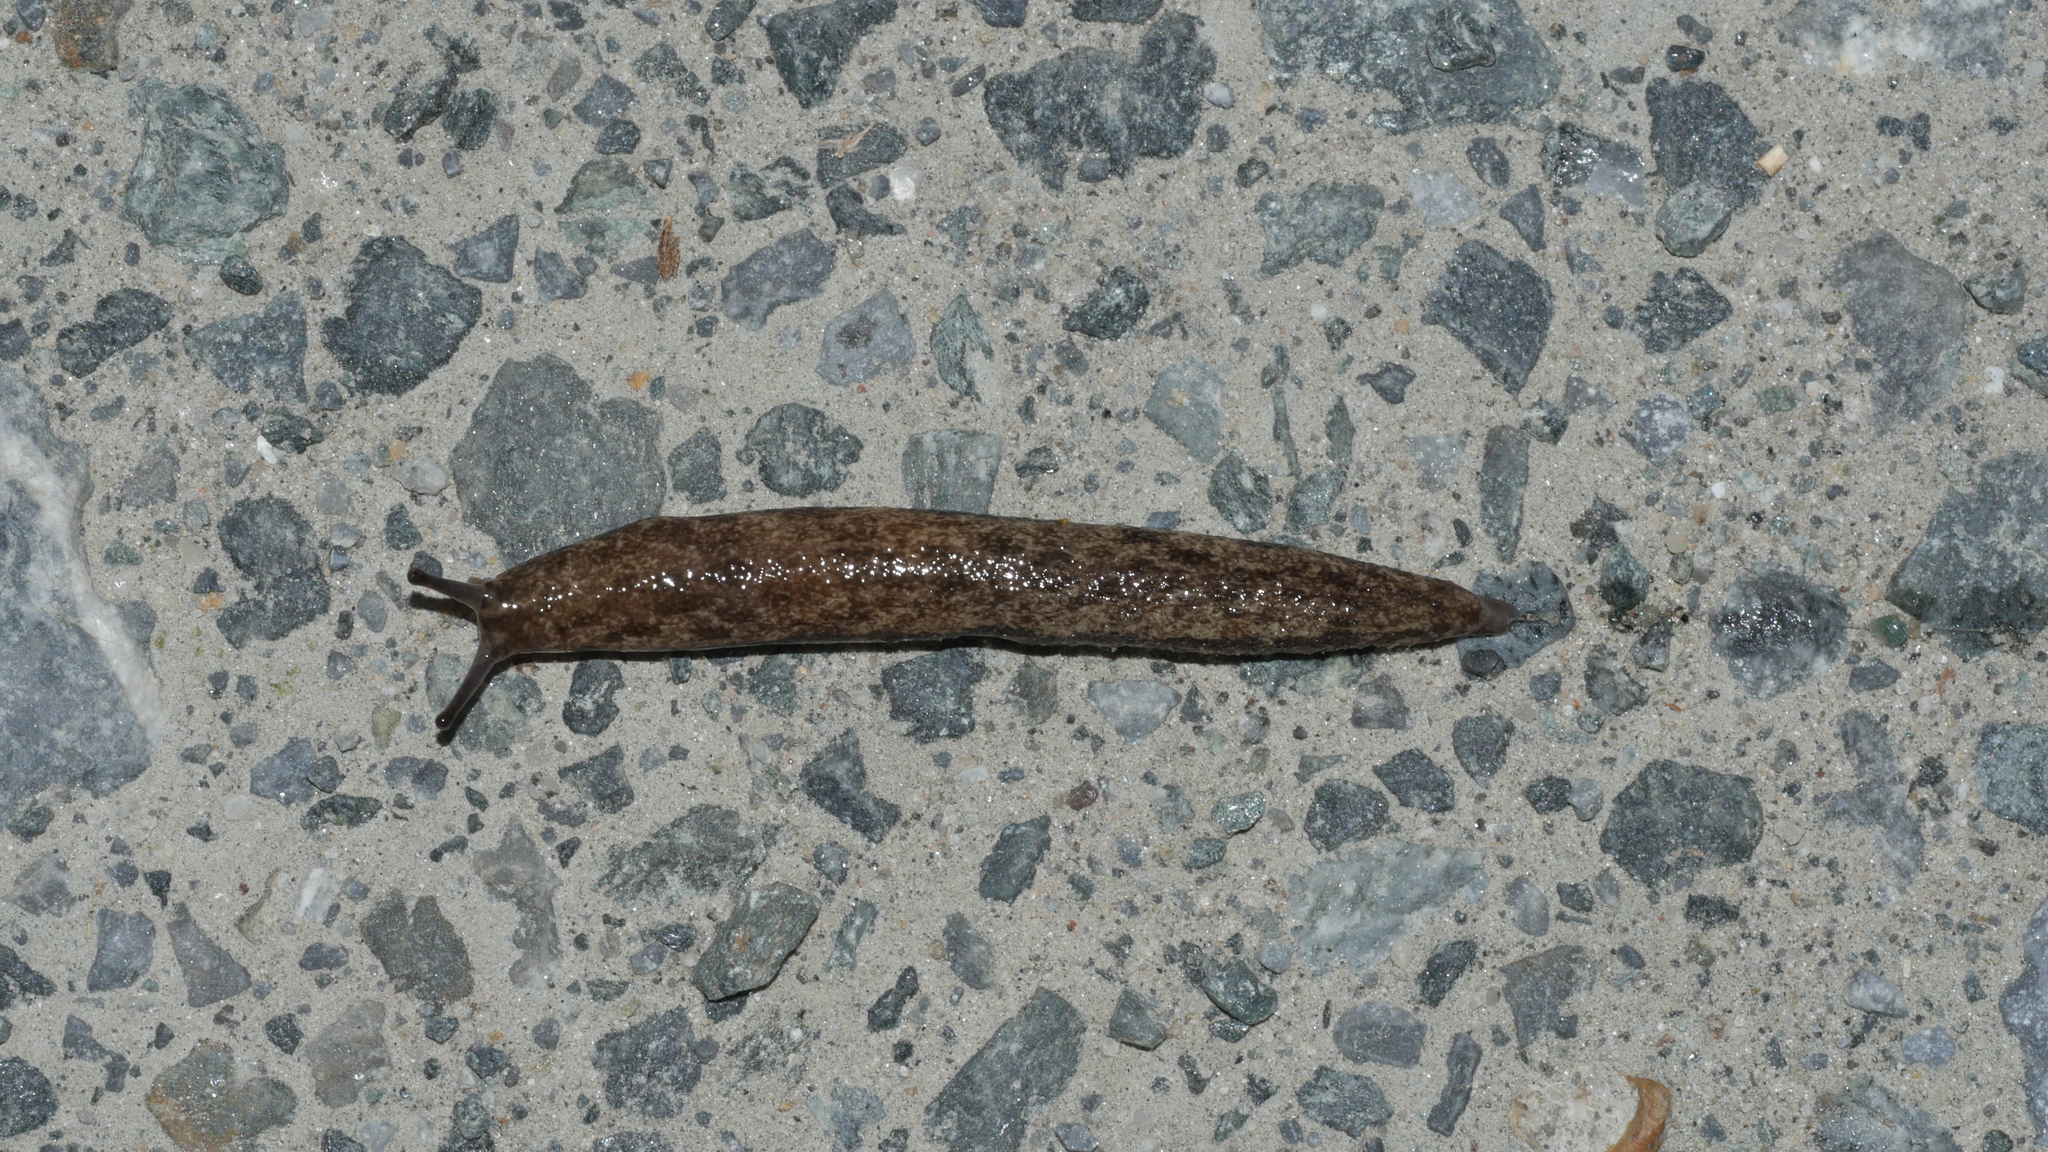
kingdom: Animalia
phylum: Mollusca
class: Gastropoda
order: Stylommatophora
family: Philomycidae
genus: Megapallifera
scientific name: Megapallifera mutabilis
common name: Changeable mantleslug
